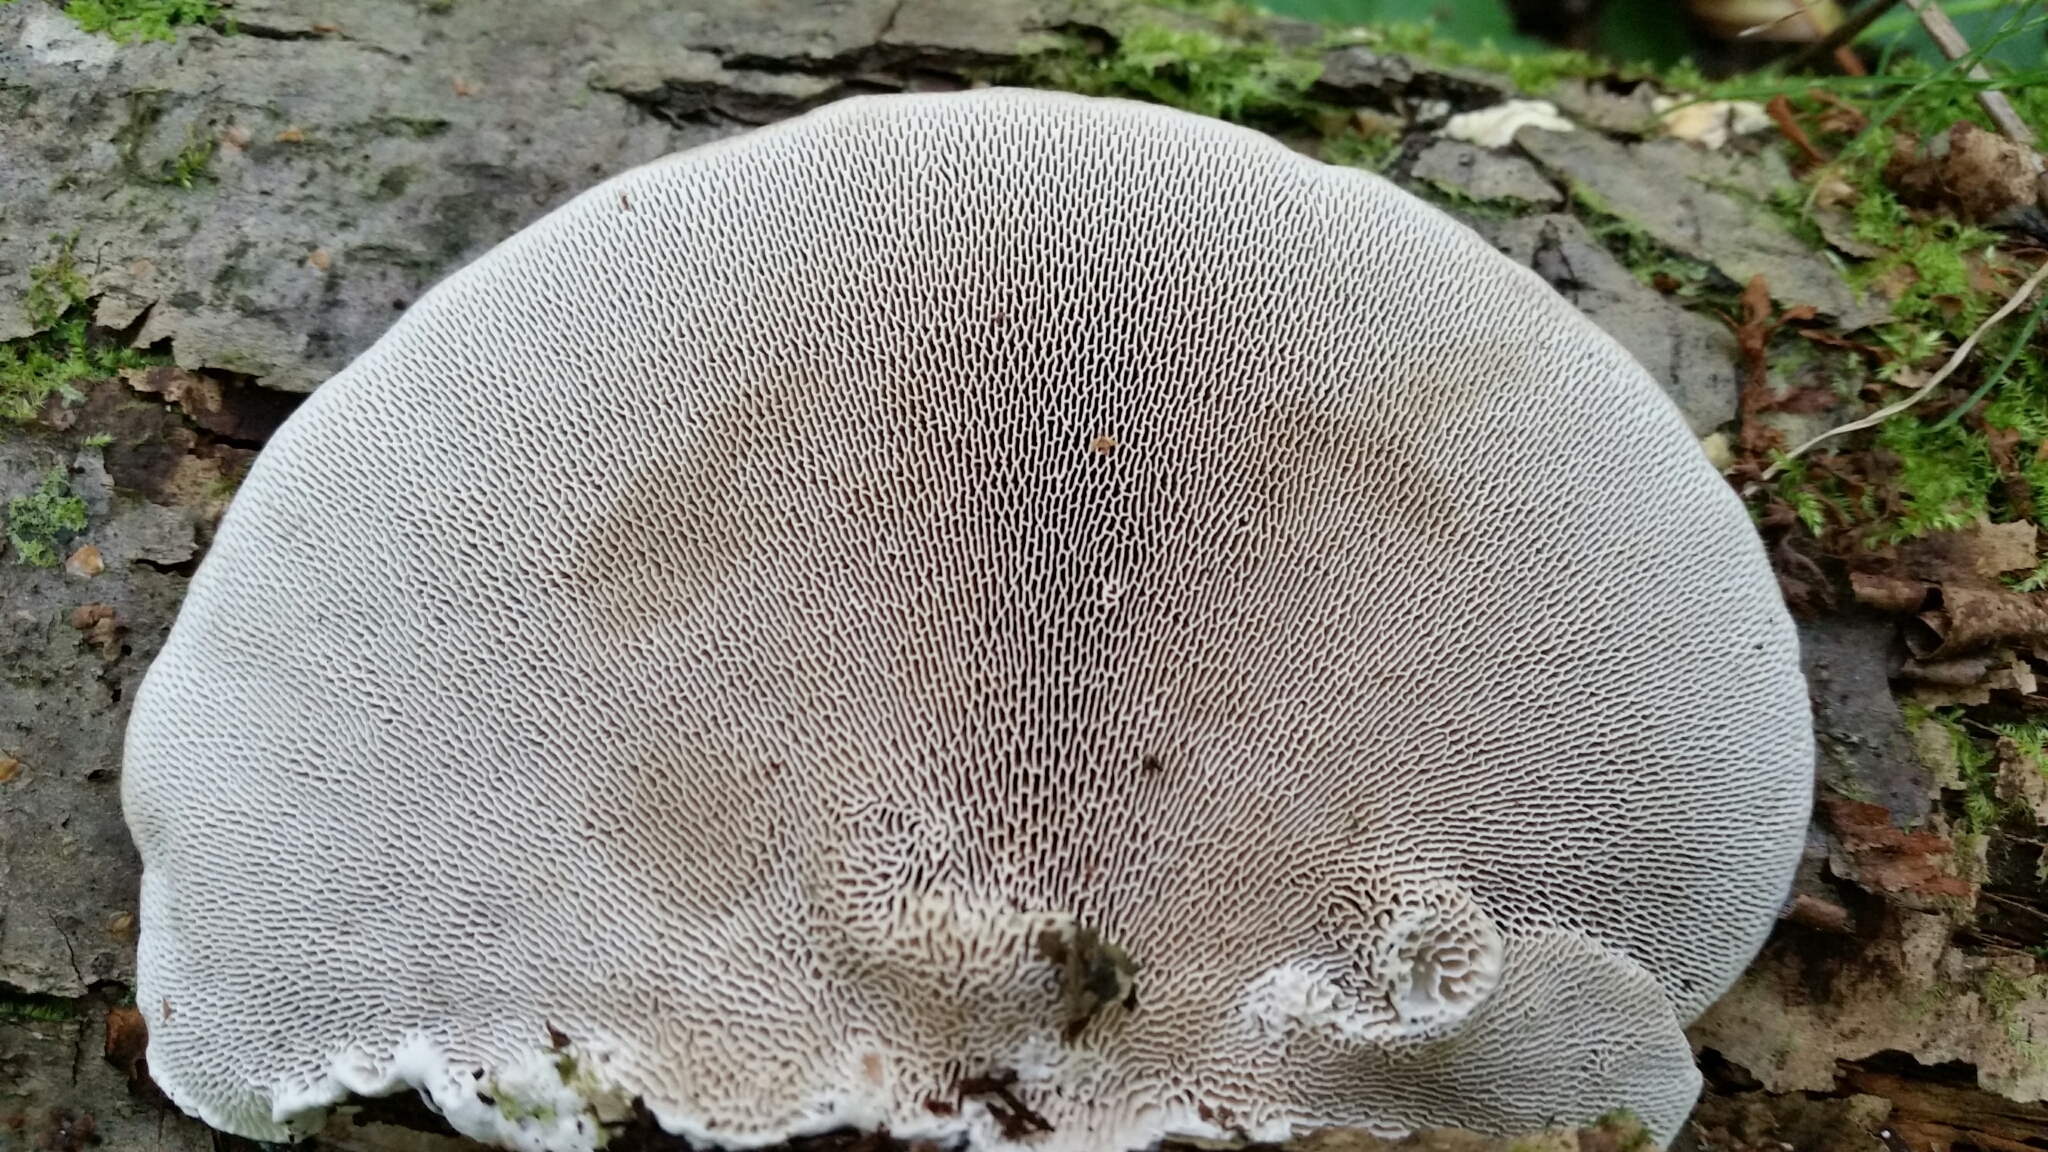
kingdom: Fungi
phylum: Basidiomycota
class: Agaricomycetes
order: Polyporales
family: Polyporaceae
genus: Trametes
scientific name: Trametes gibbosa
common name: Lumpy bracket
